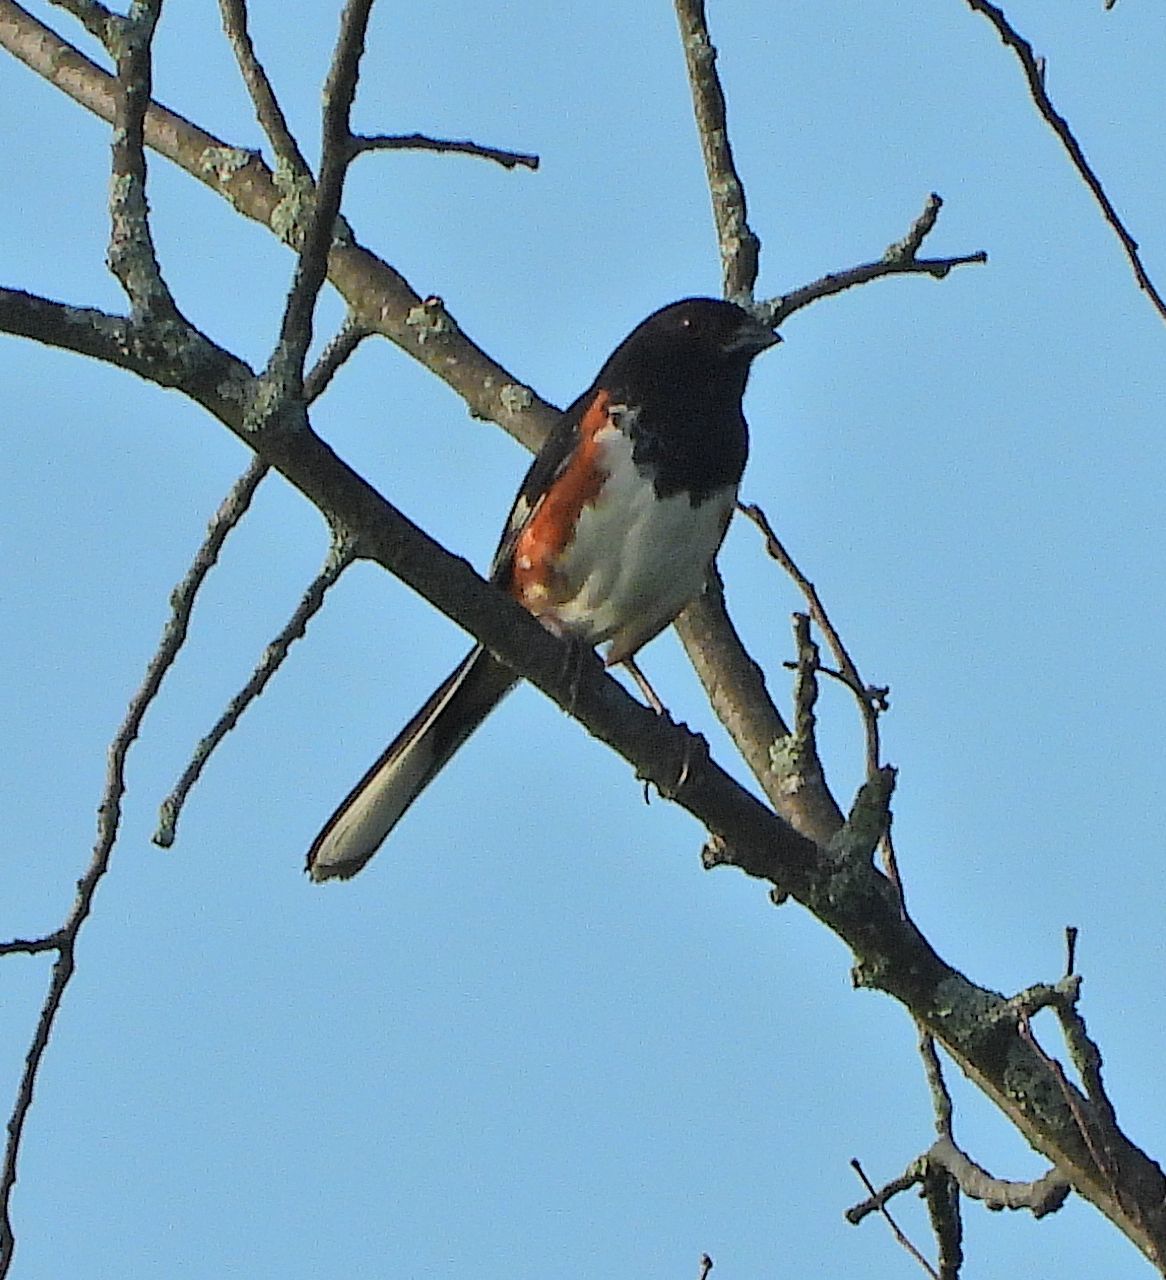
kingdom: Animalia
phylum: Chordata
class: Aves
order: Passeriformes
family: Passerellidae
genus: Pipilo
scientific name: Pipilo erythrophthalmus
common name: Eastern towhee
